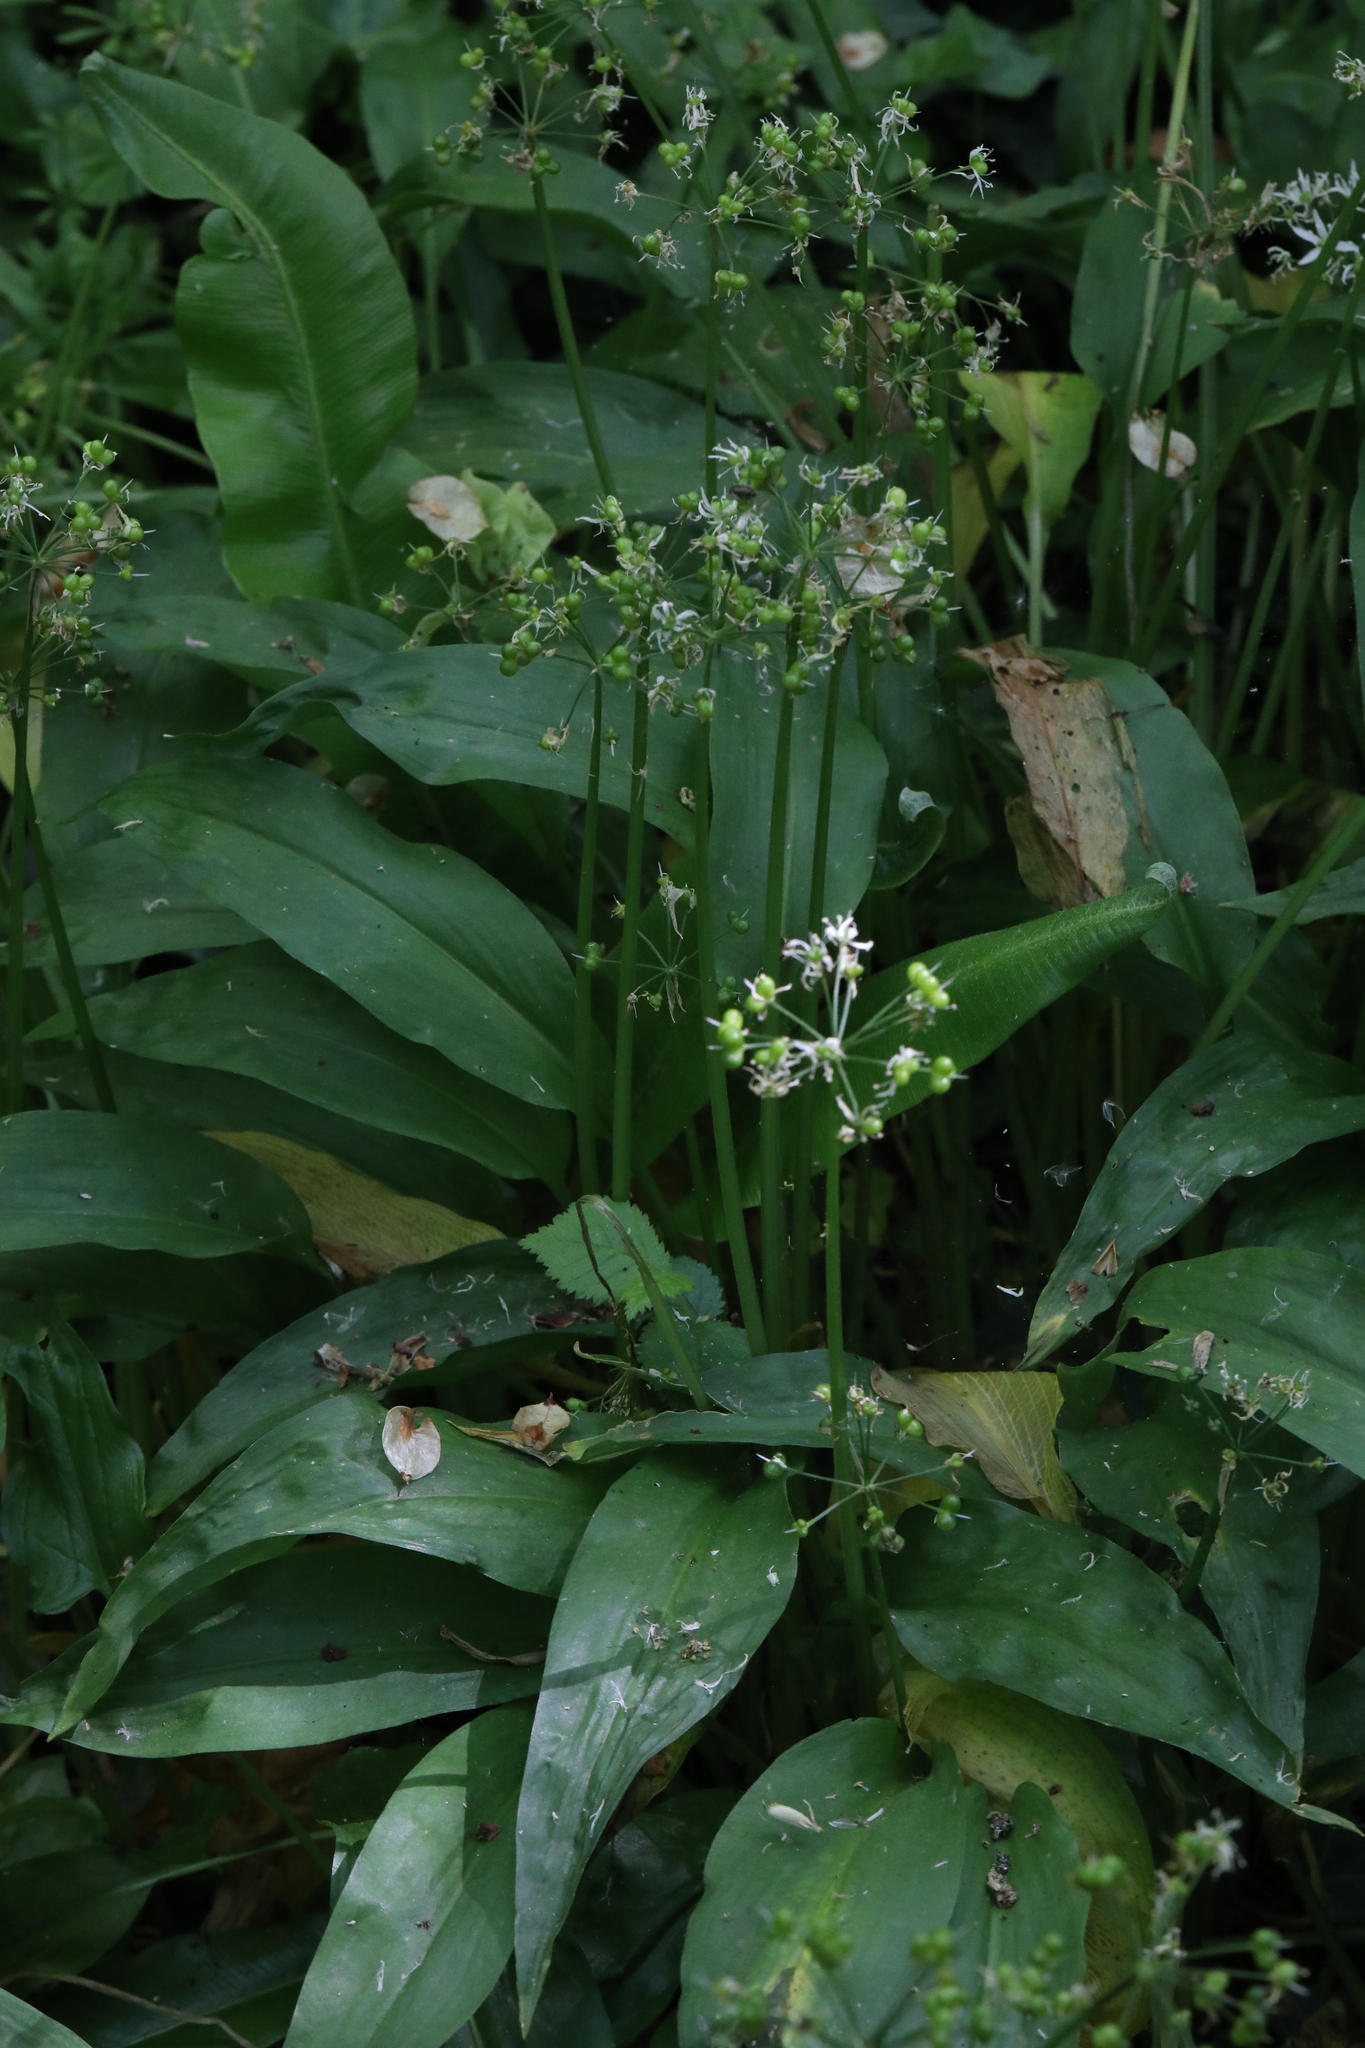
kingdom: Plantae
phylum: Tracheophyta
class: Liliopsida
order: Asparagales
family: Amaryllidaceae
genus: Allium
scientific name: Allium ursinum
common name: Ramsons
